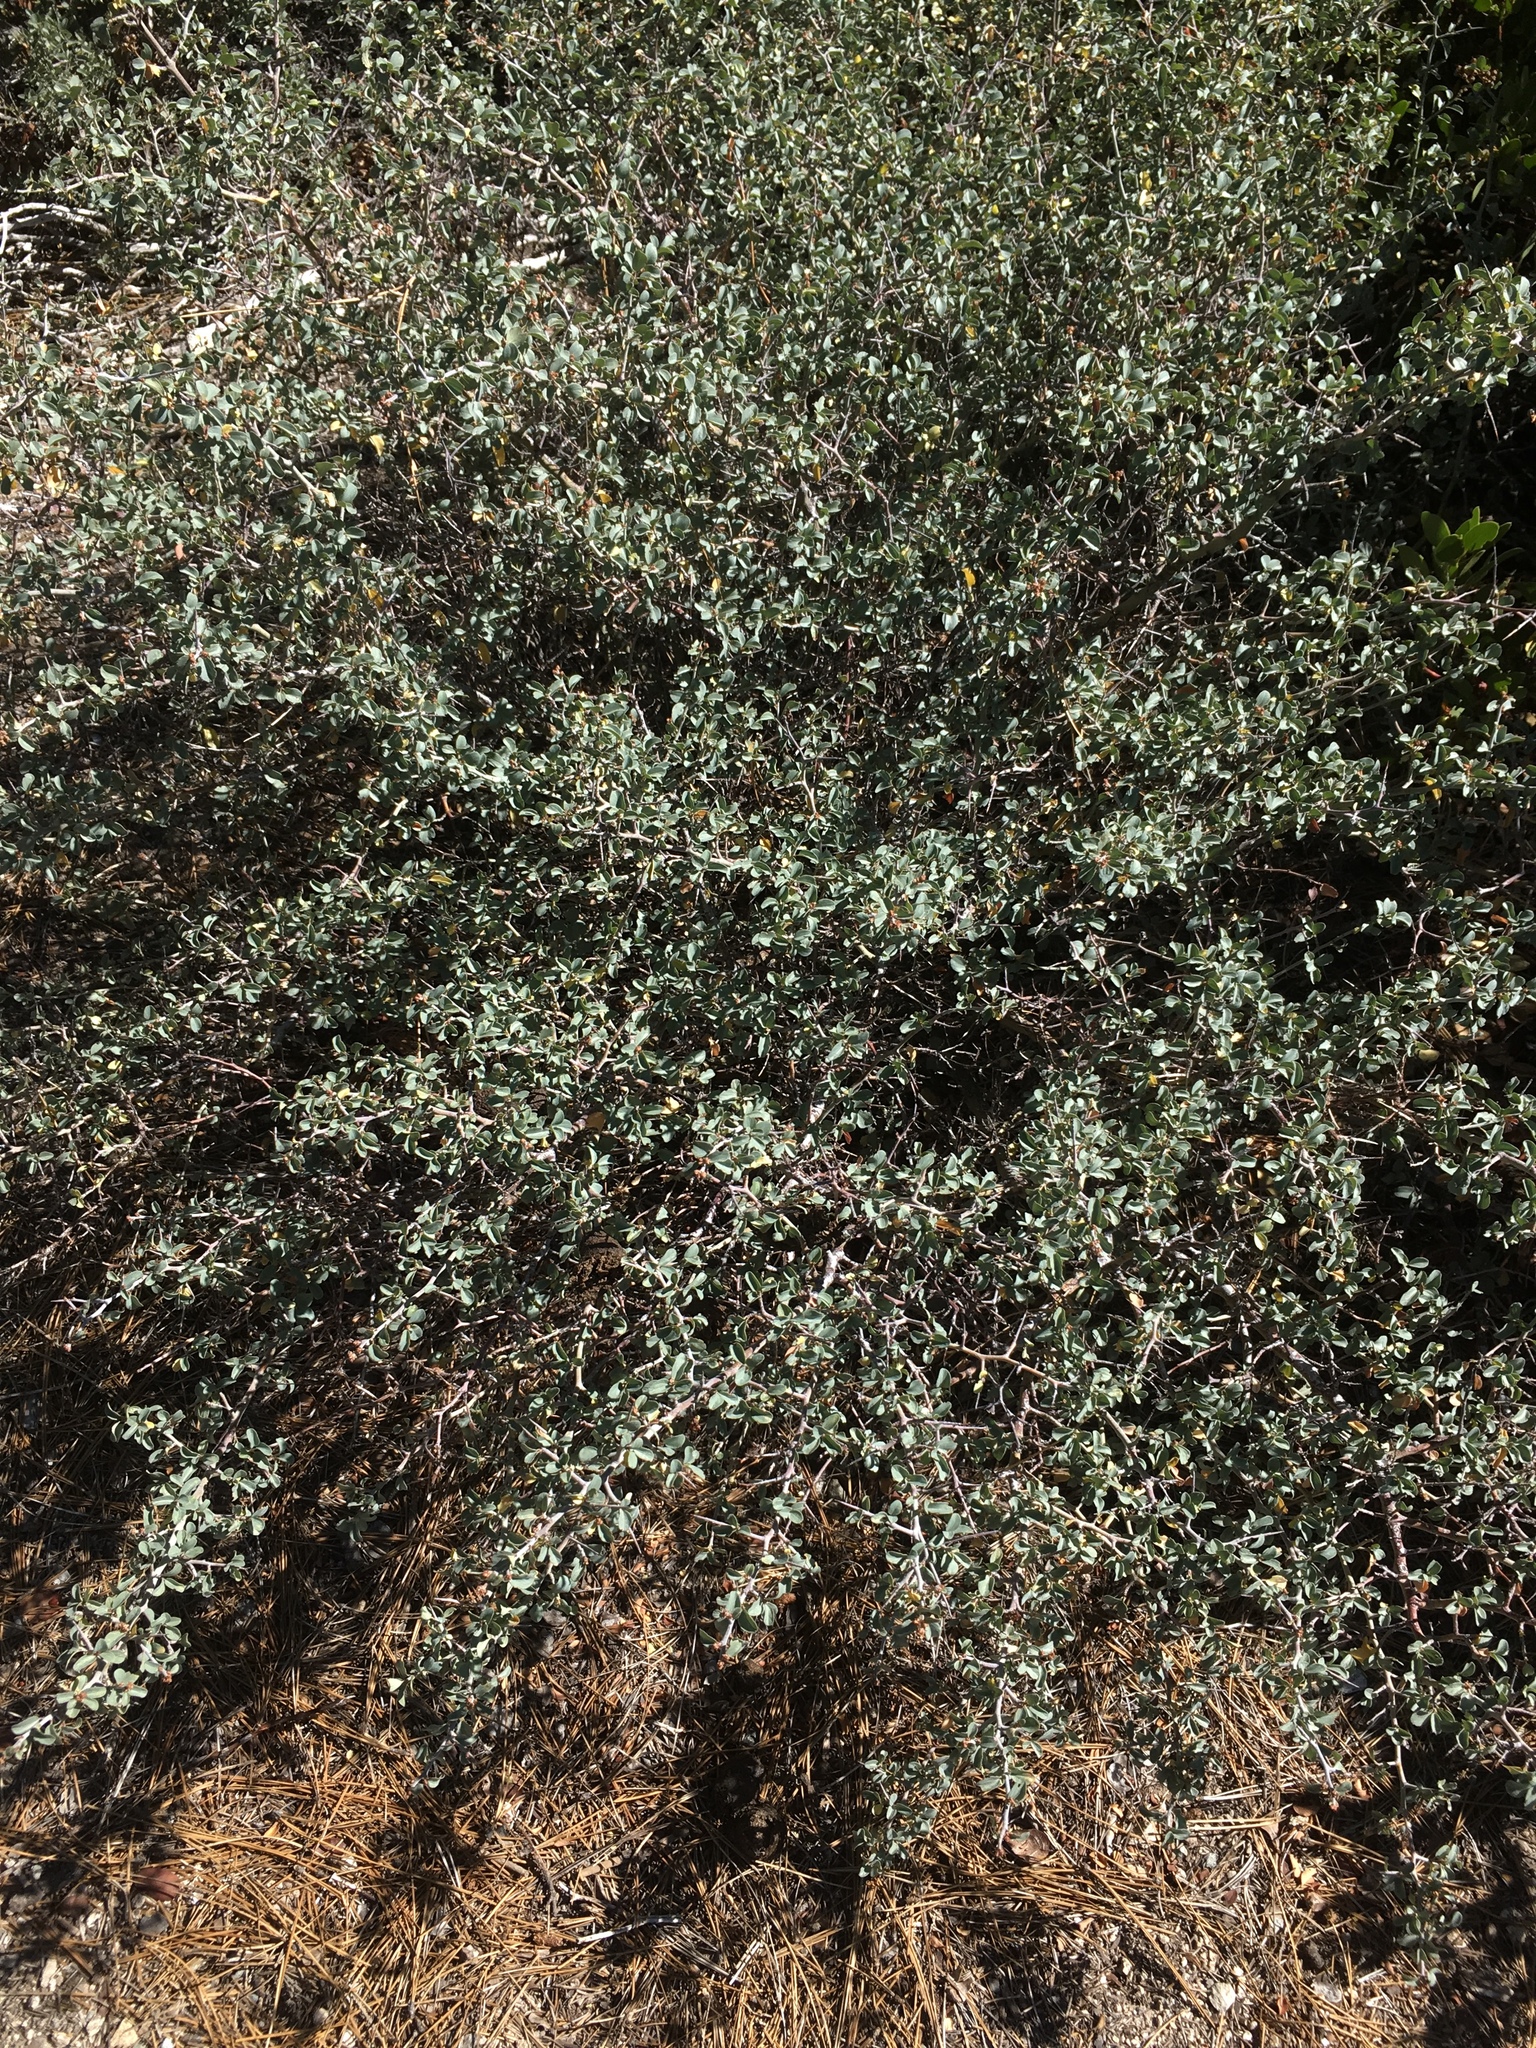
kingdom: Plantae
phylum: Tracheophyta
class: Magnoliopsida
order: Rosales
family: Rhamnaceae
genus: Ceanothus
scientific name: Ceanothus cordulatus
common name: Mountain whitethorn
